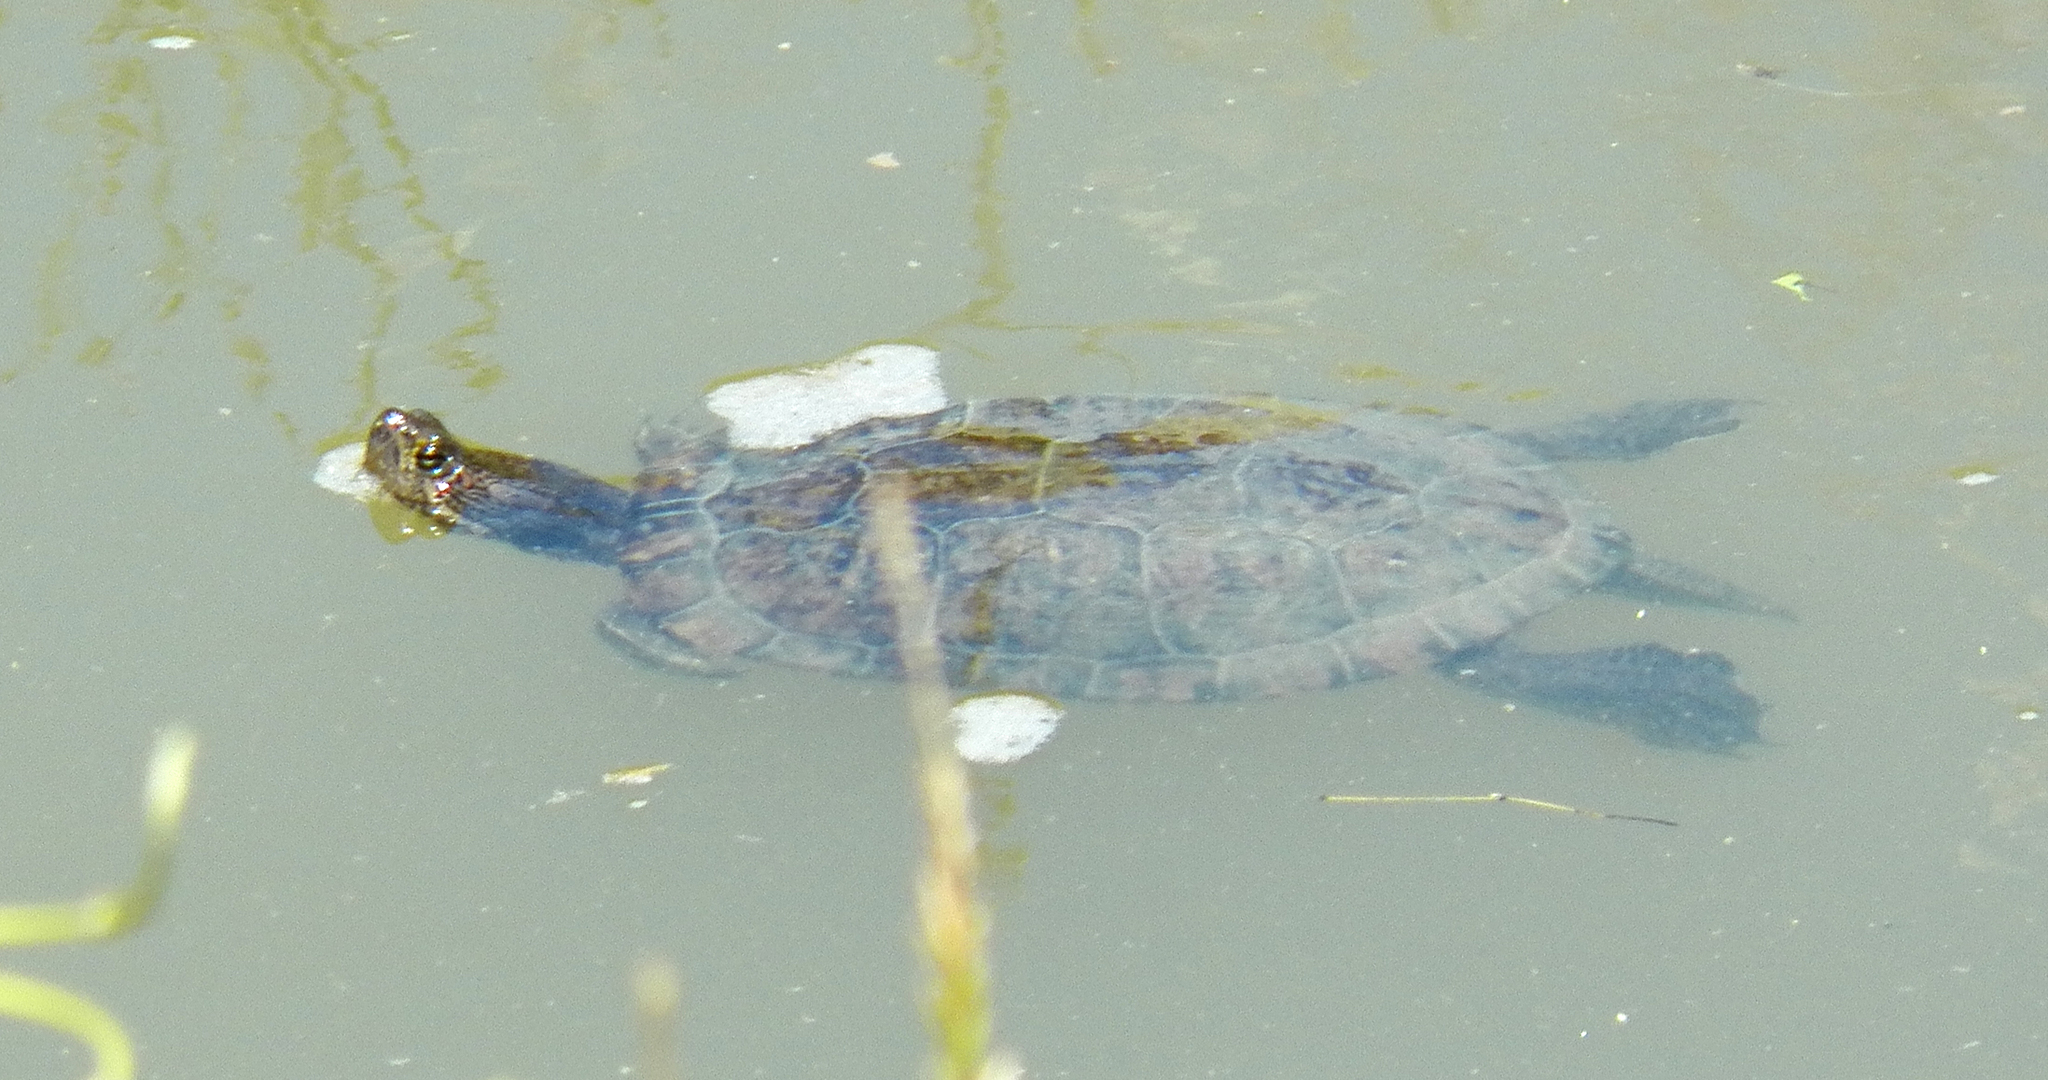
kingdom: Animalia
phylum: Chordata
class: Testudines
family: Emydidae
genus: Trachemys
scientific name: Trachemys scripta
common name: Slider
